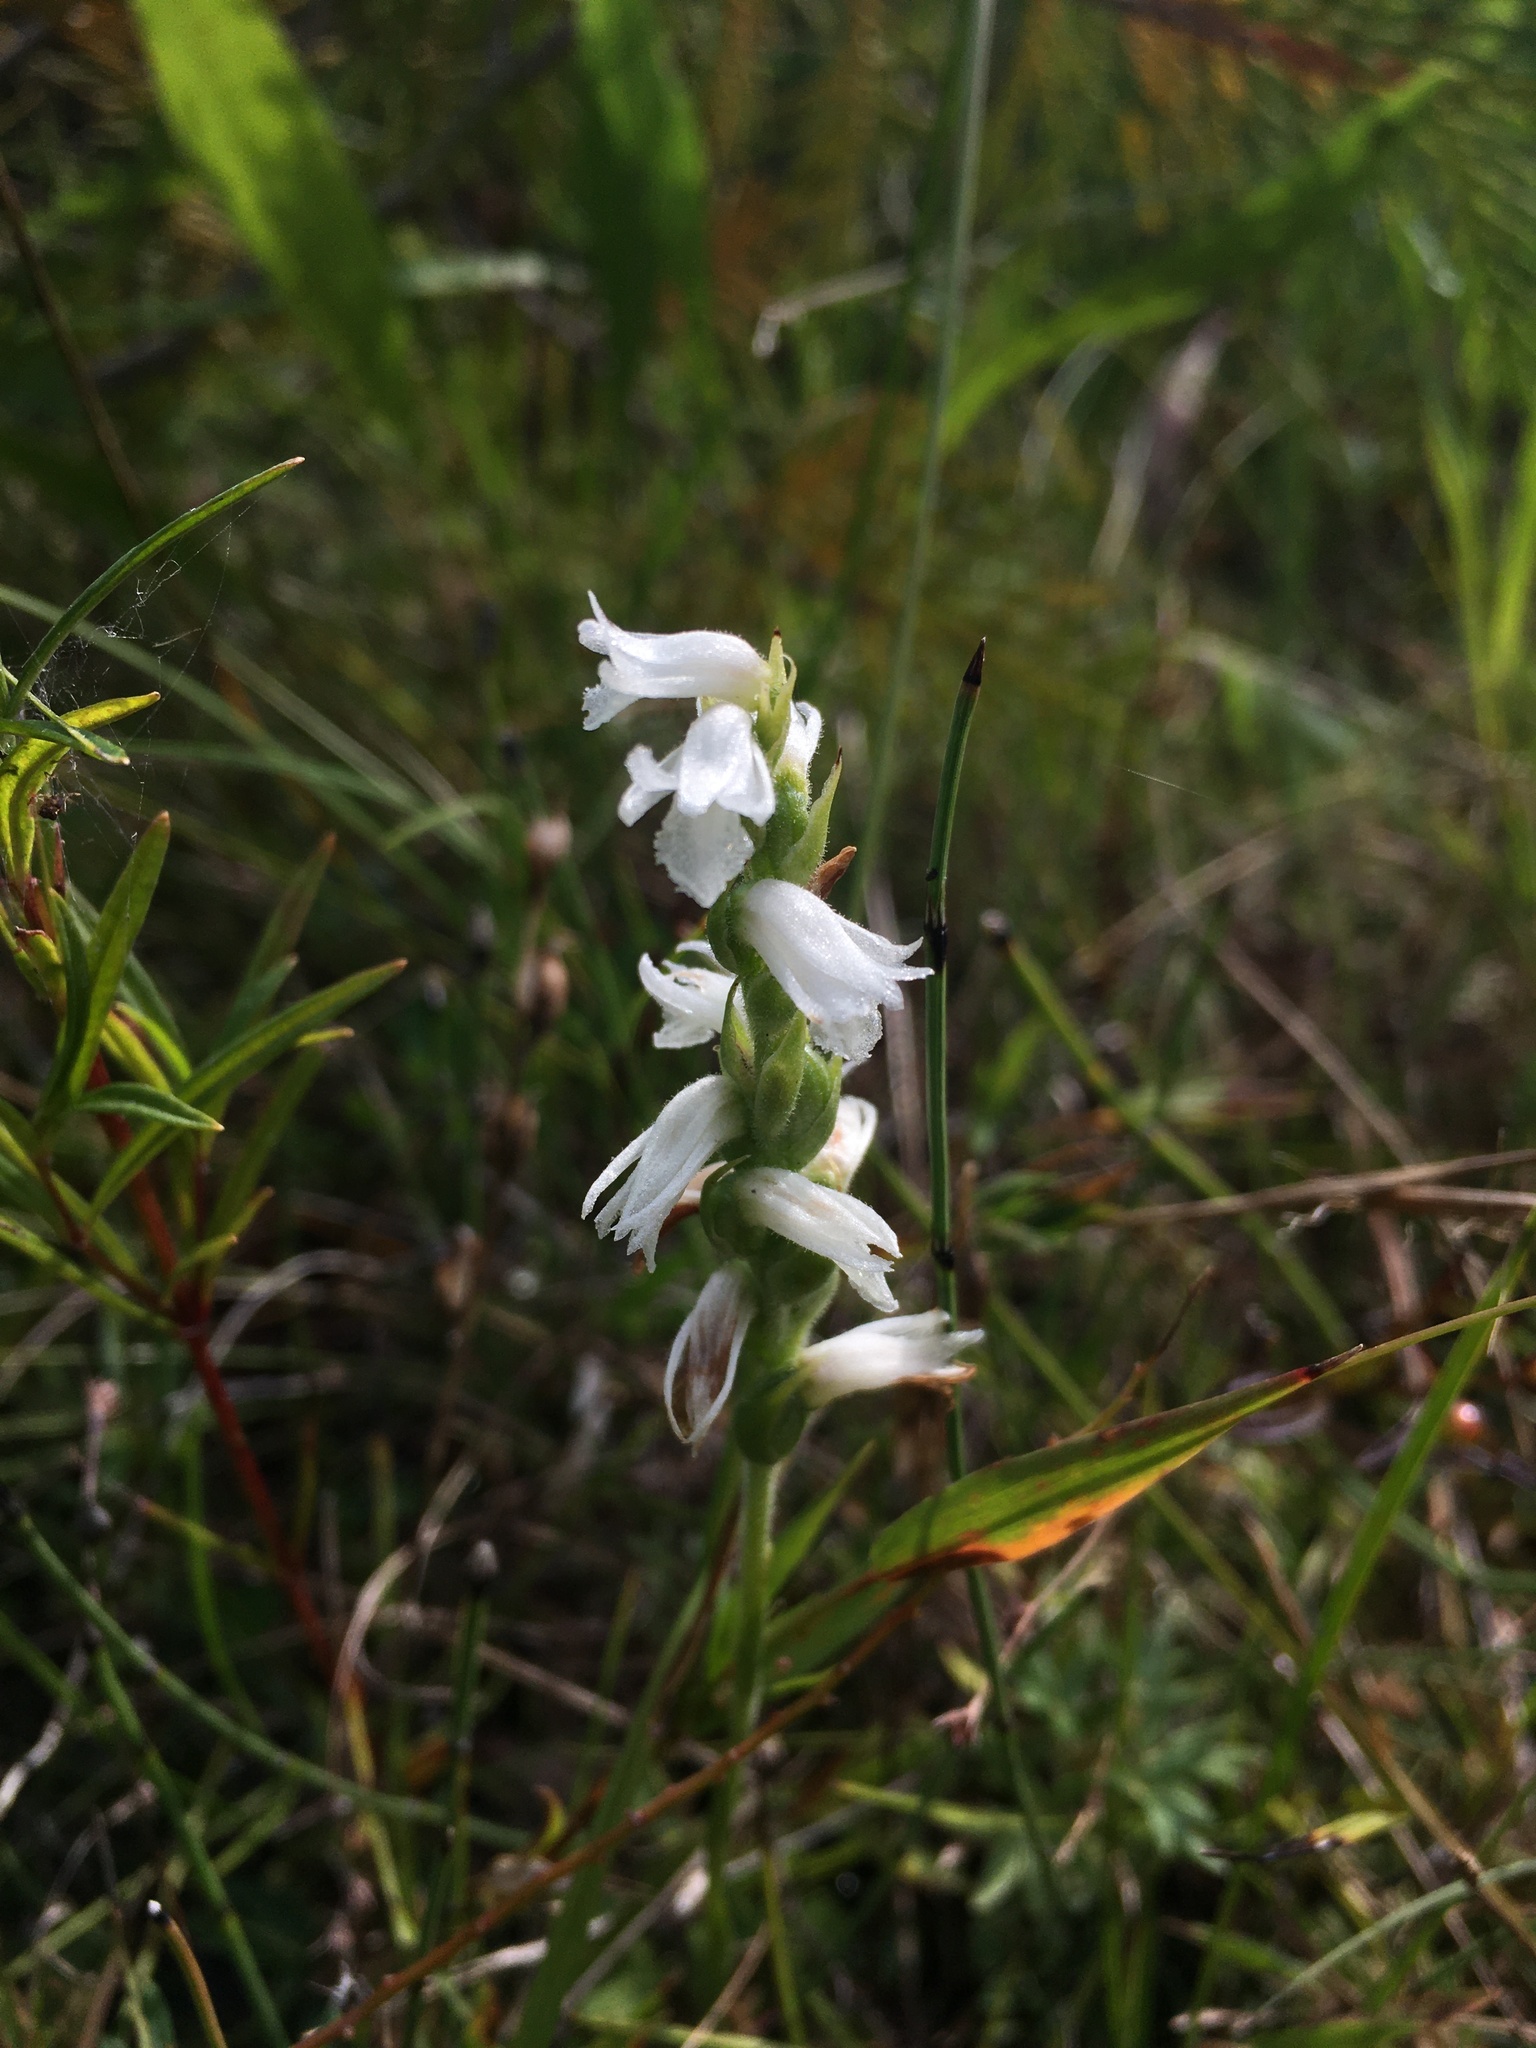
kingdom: Plantae
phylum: Tracheophyta
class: Liliopsida
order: Asparagales
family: Orchidaceae
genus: Spiranthes
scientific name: Spiranthes incurva
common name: Sphinx ladies'-tresses
